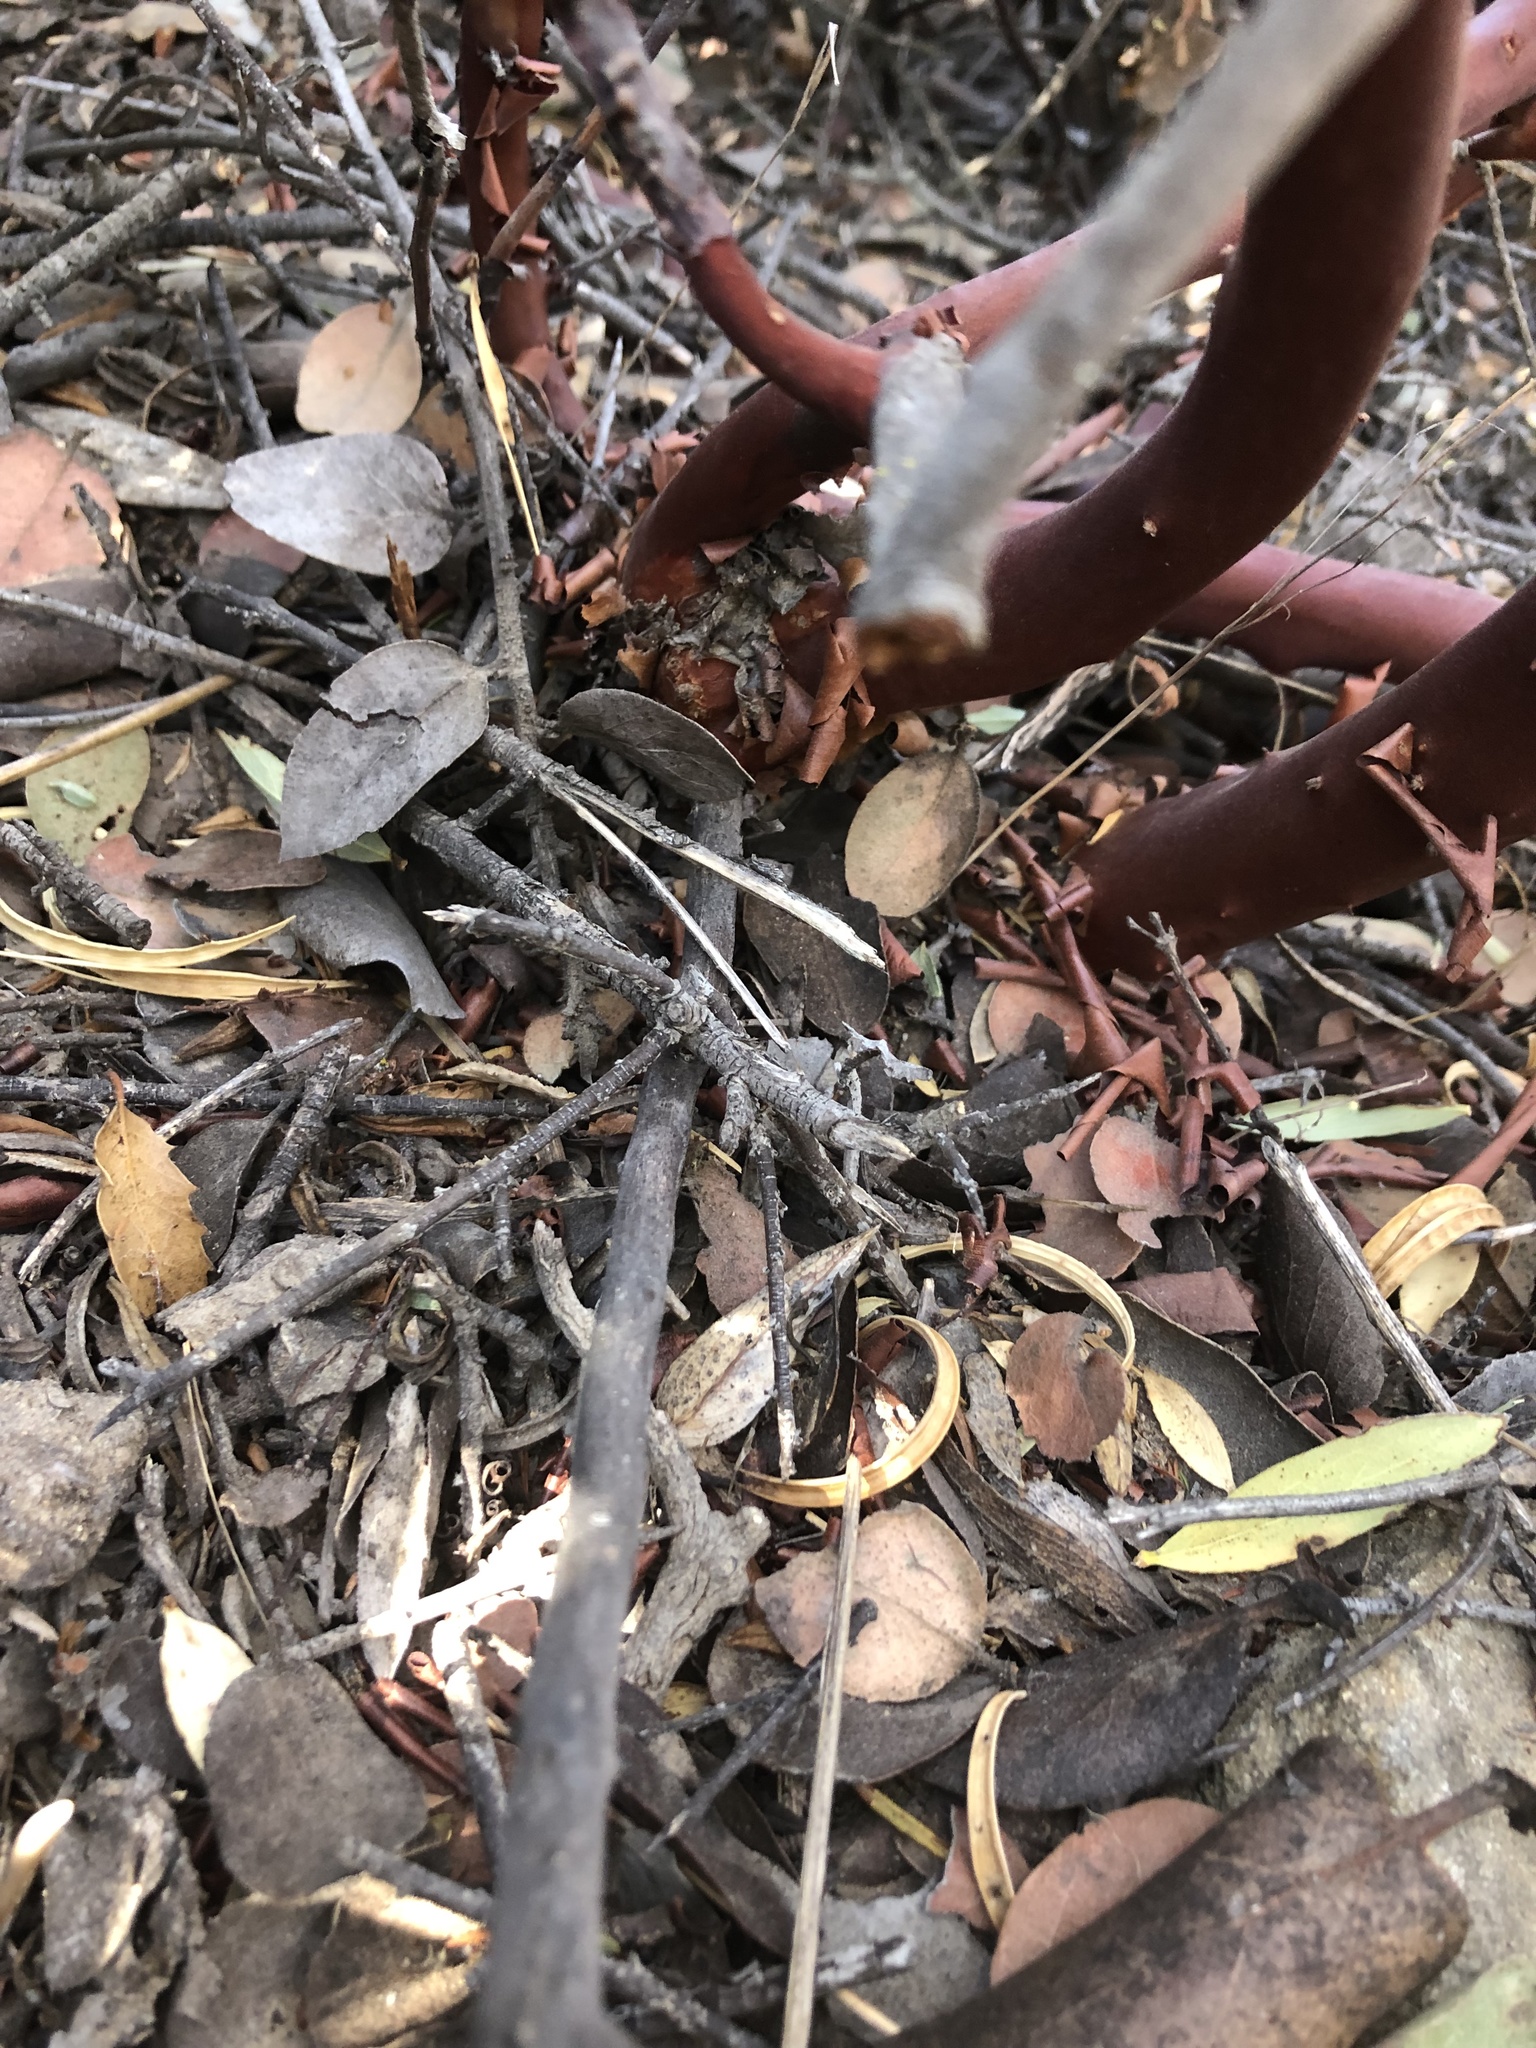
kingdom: Plantae
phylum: Tracheophyta
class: Magnoliopsida
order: Ericales
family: Ericaceae
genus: Arctostaphylos
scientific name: Arctostaphylos glandulosa
